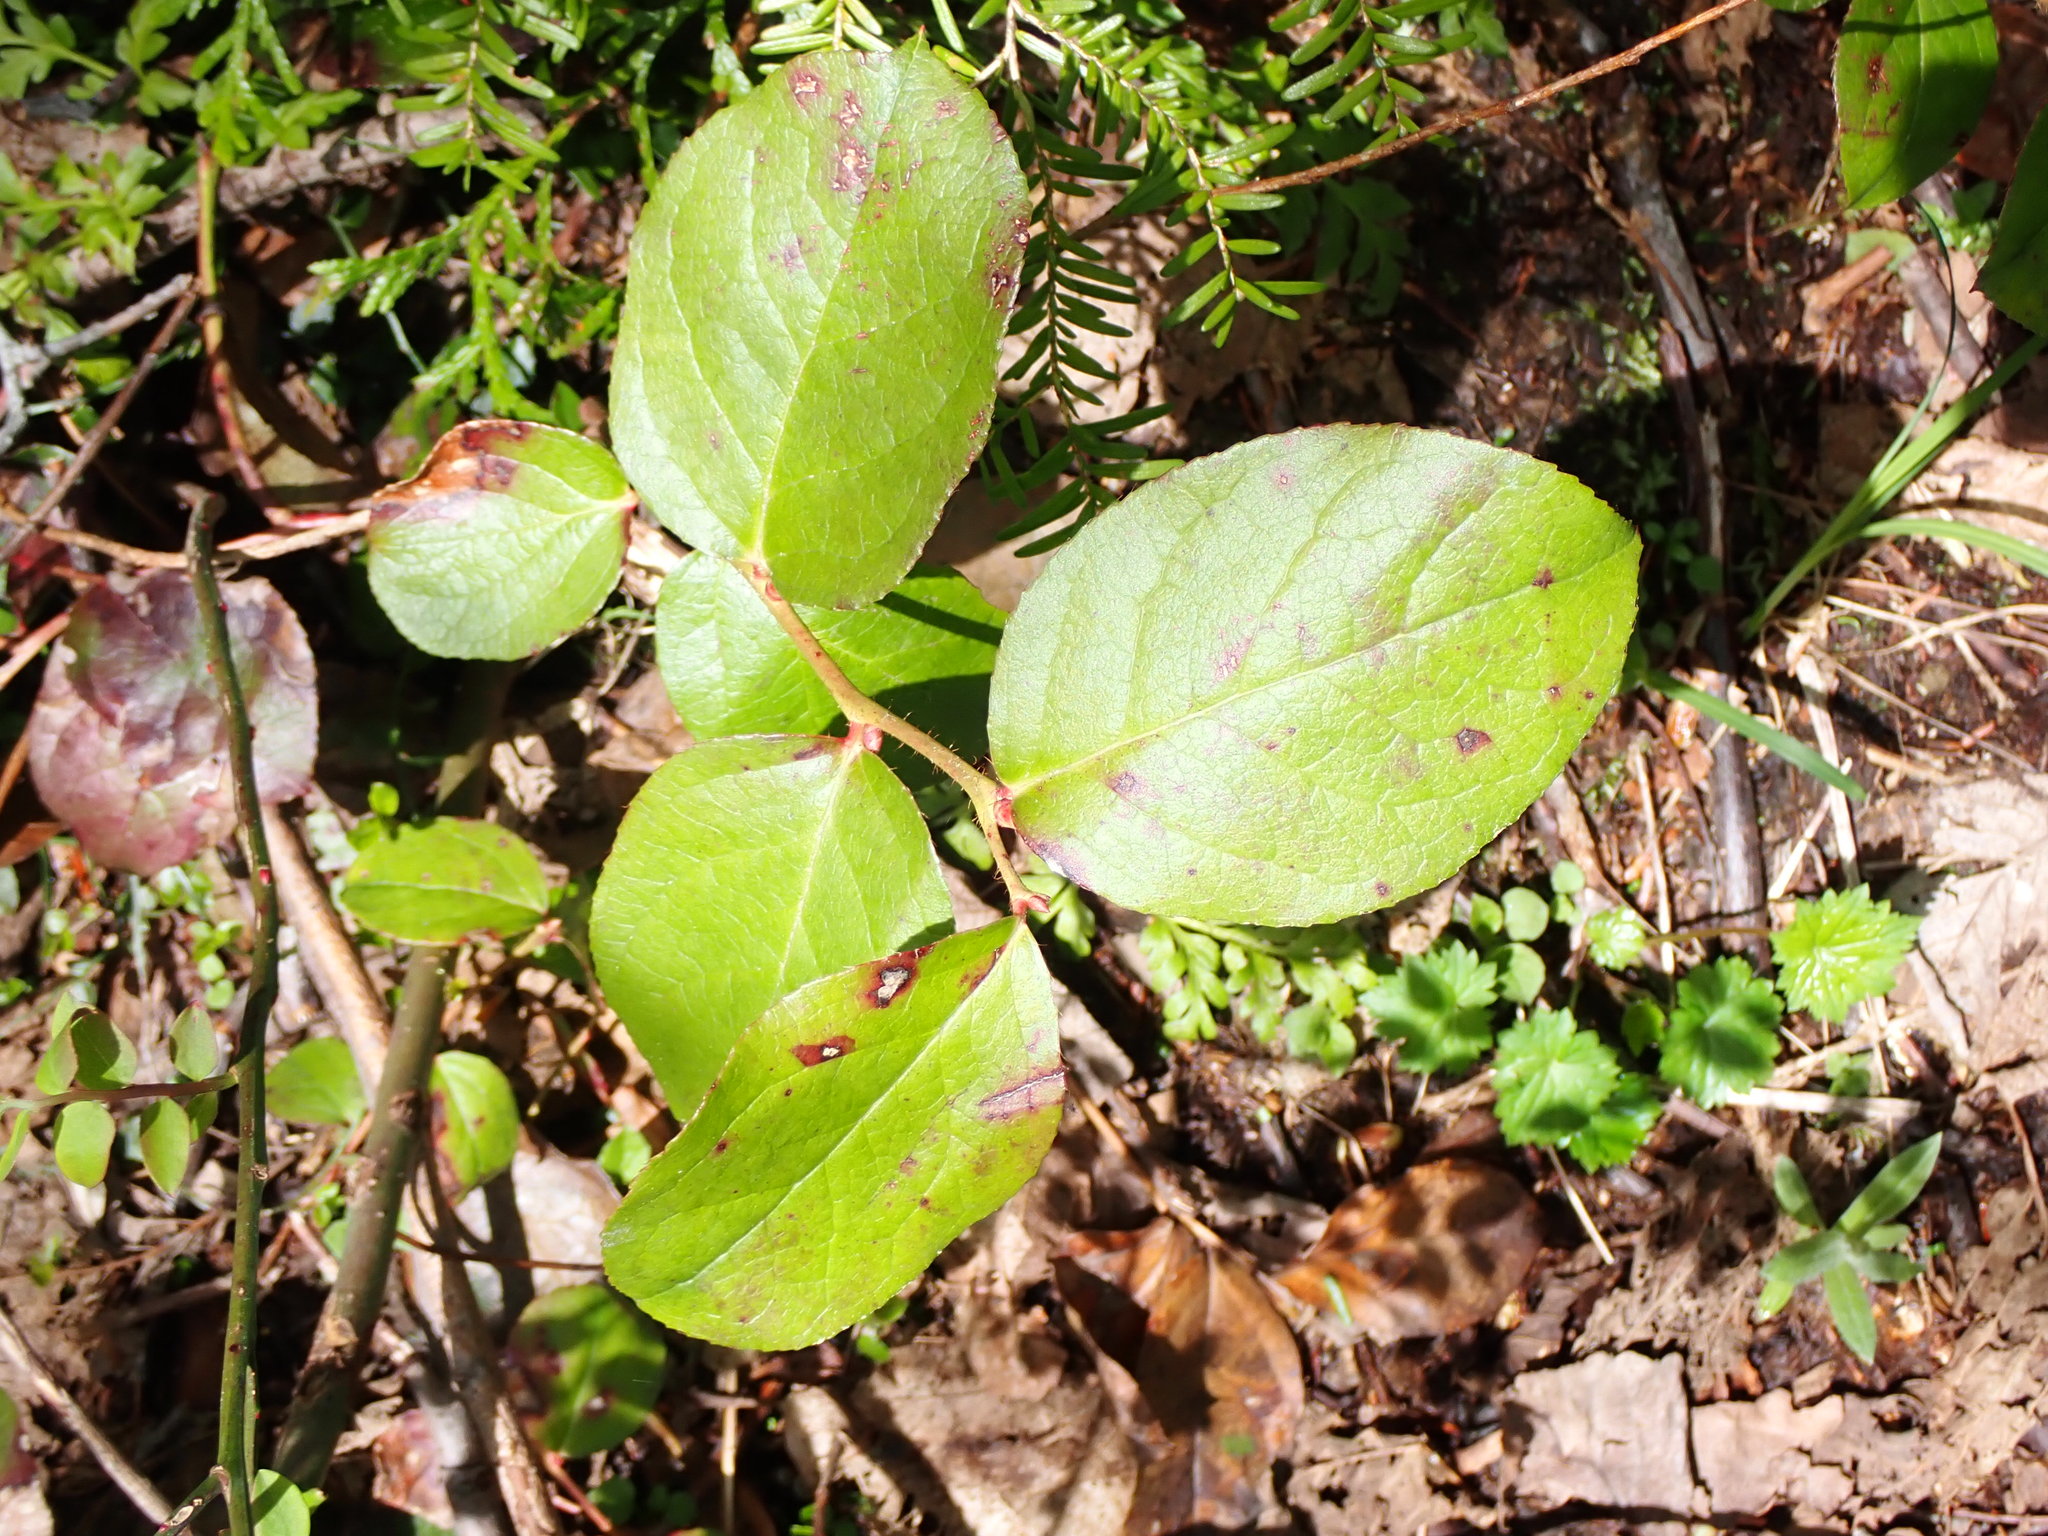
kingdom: Plantae
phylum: Tracheophyta
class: Magnoliopsida
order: Ericales
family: Ericaceae
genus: Gaultheria
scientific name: Gaultheria shallon
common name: Shallon
